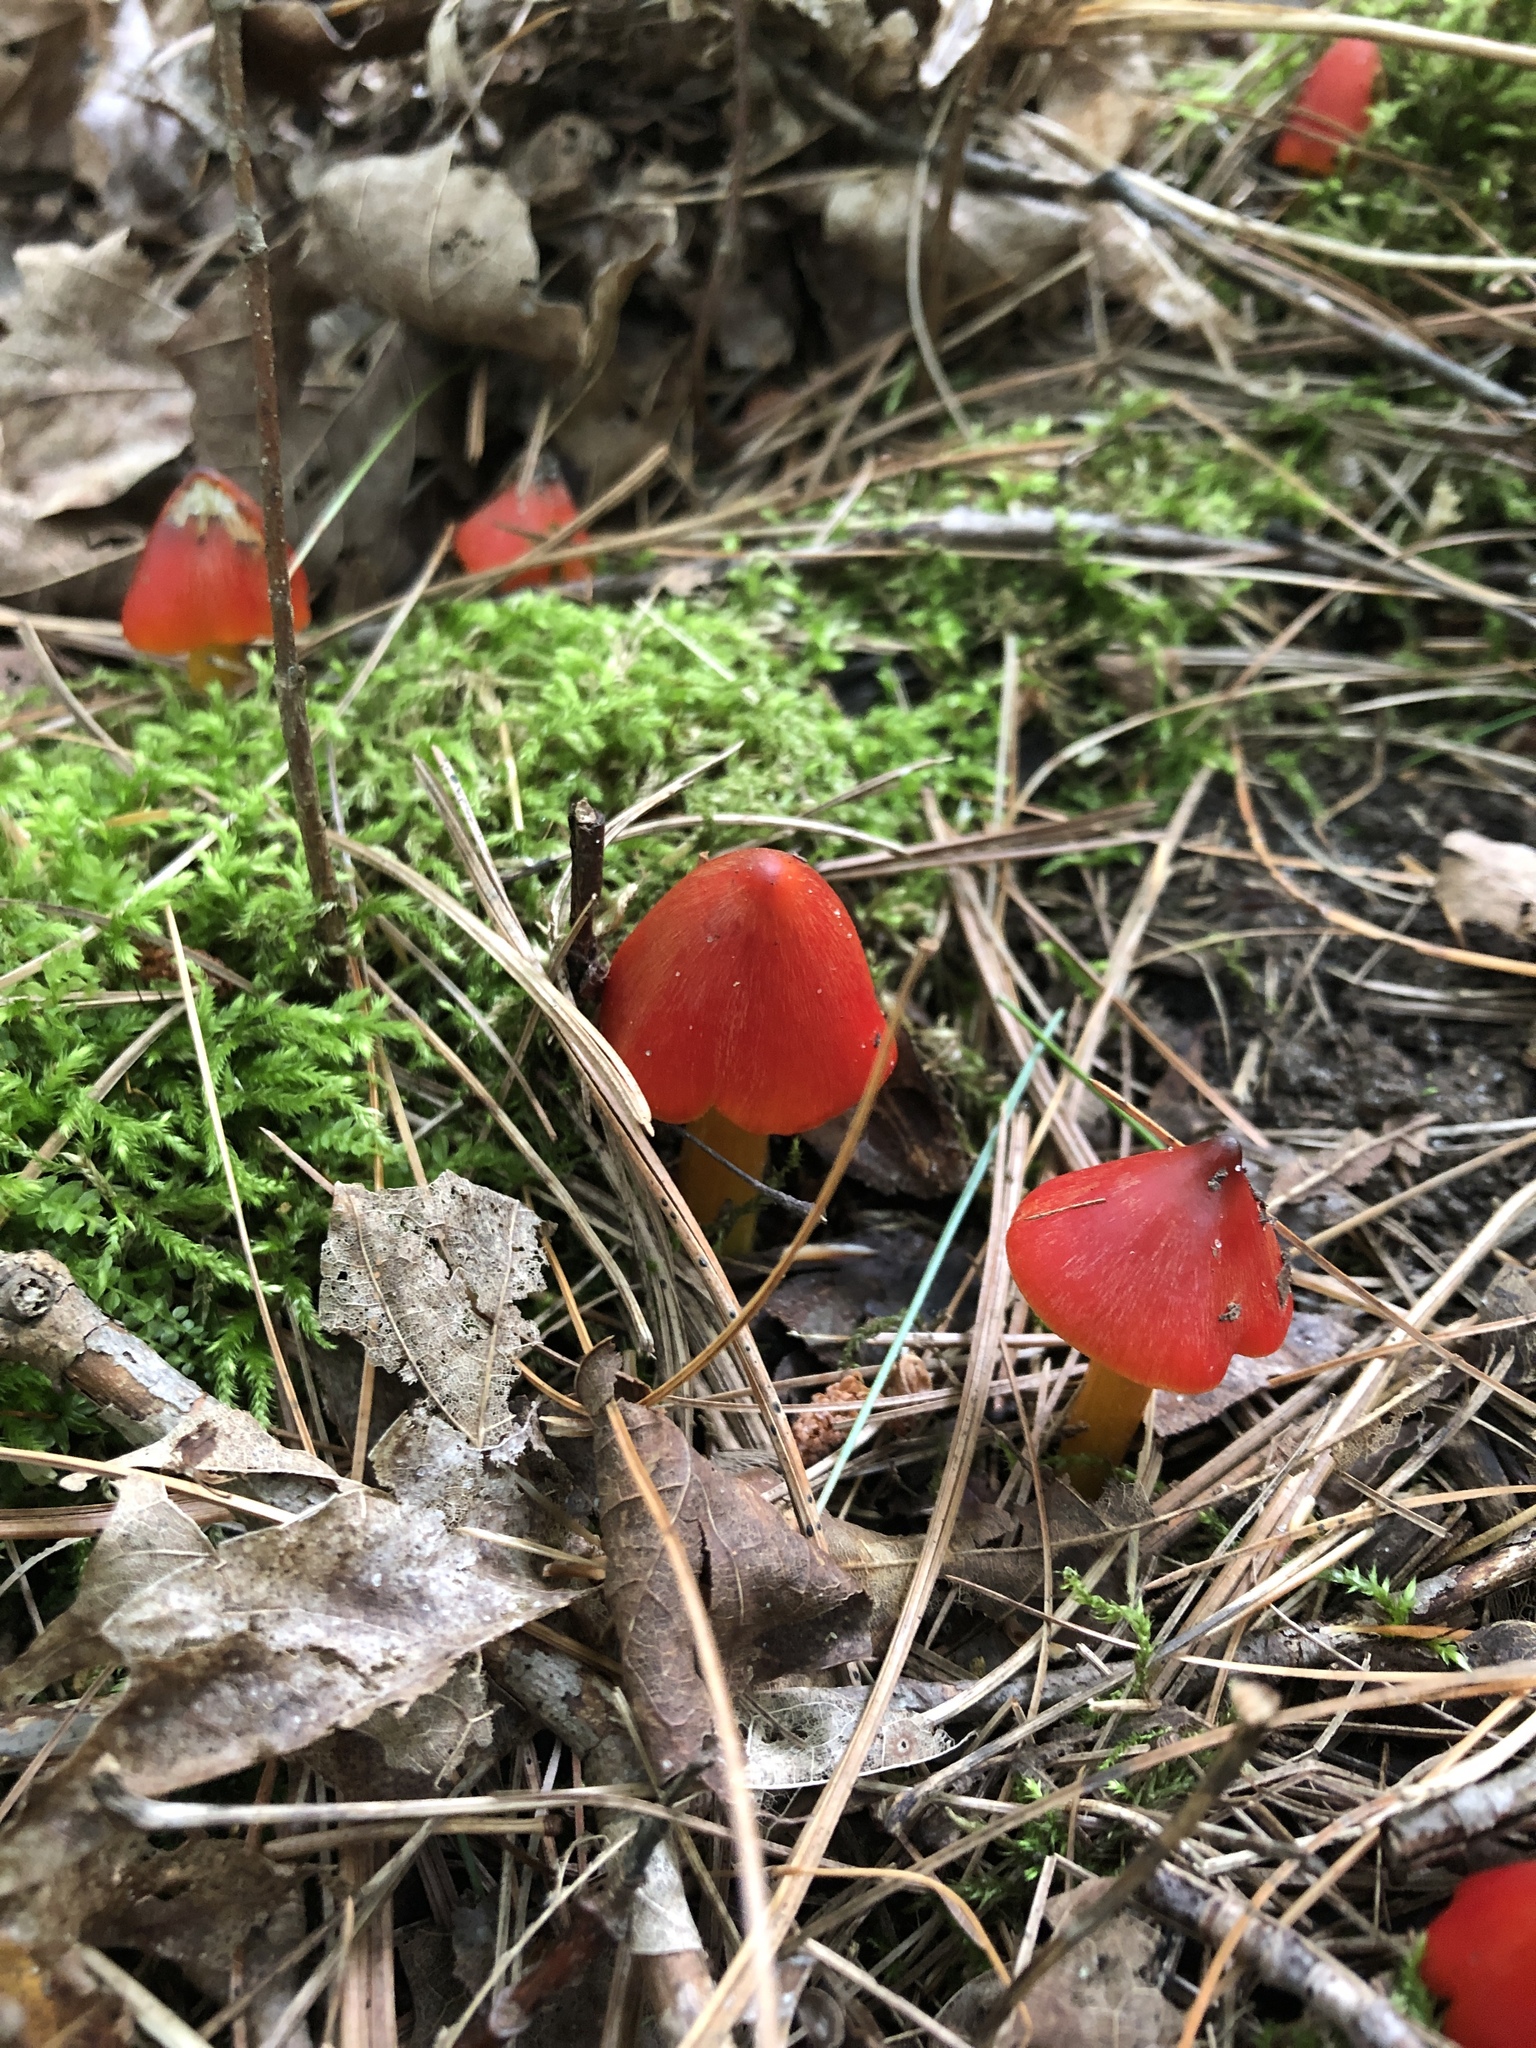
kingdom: Fungi
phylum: Basidiomycota
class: Agaricomycetes
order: Agaricales
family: Hygrophoraceae
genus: Hygrocybe
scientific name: Hygrocybe conica
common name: Blackening wax-cap
